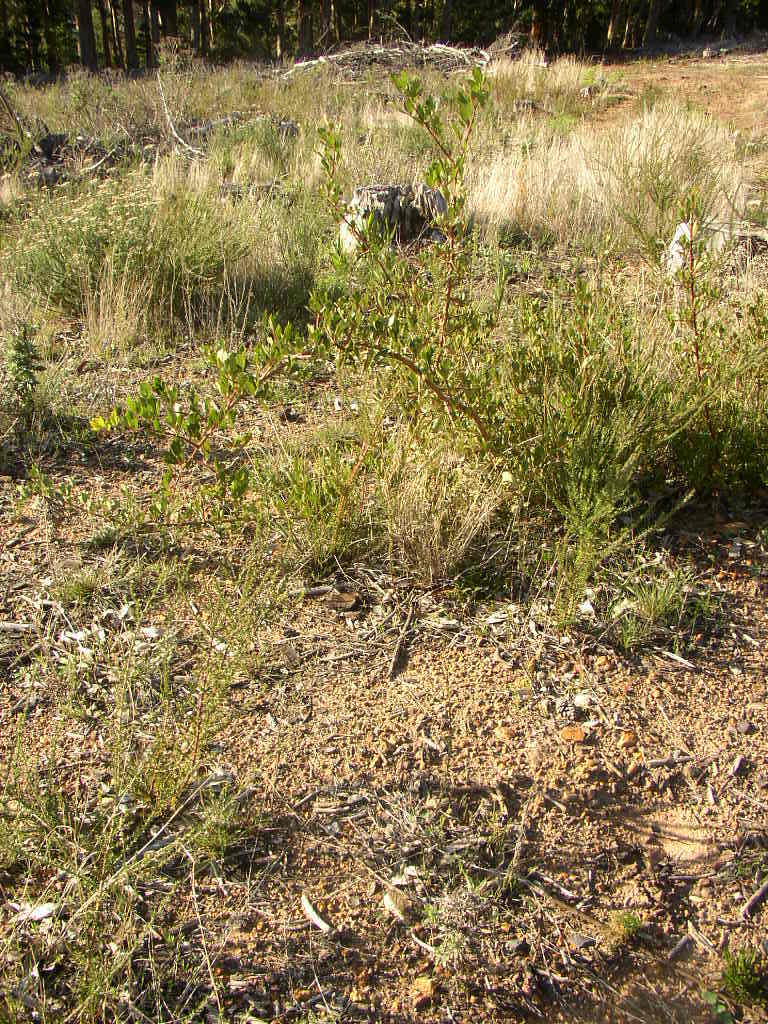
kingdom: Plantae
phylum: Tracheophyta
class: Magnoliopsida
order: Sapindales
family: Anacardiaceae
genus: Searsia
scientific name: Searsia laevigata
